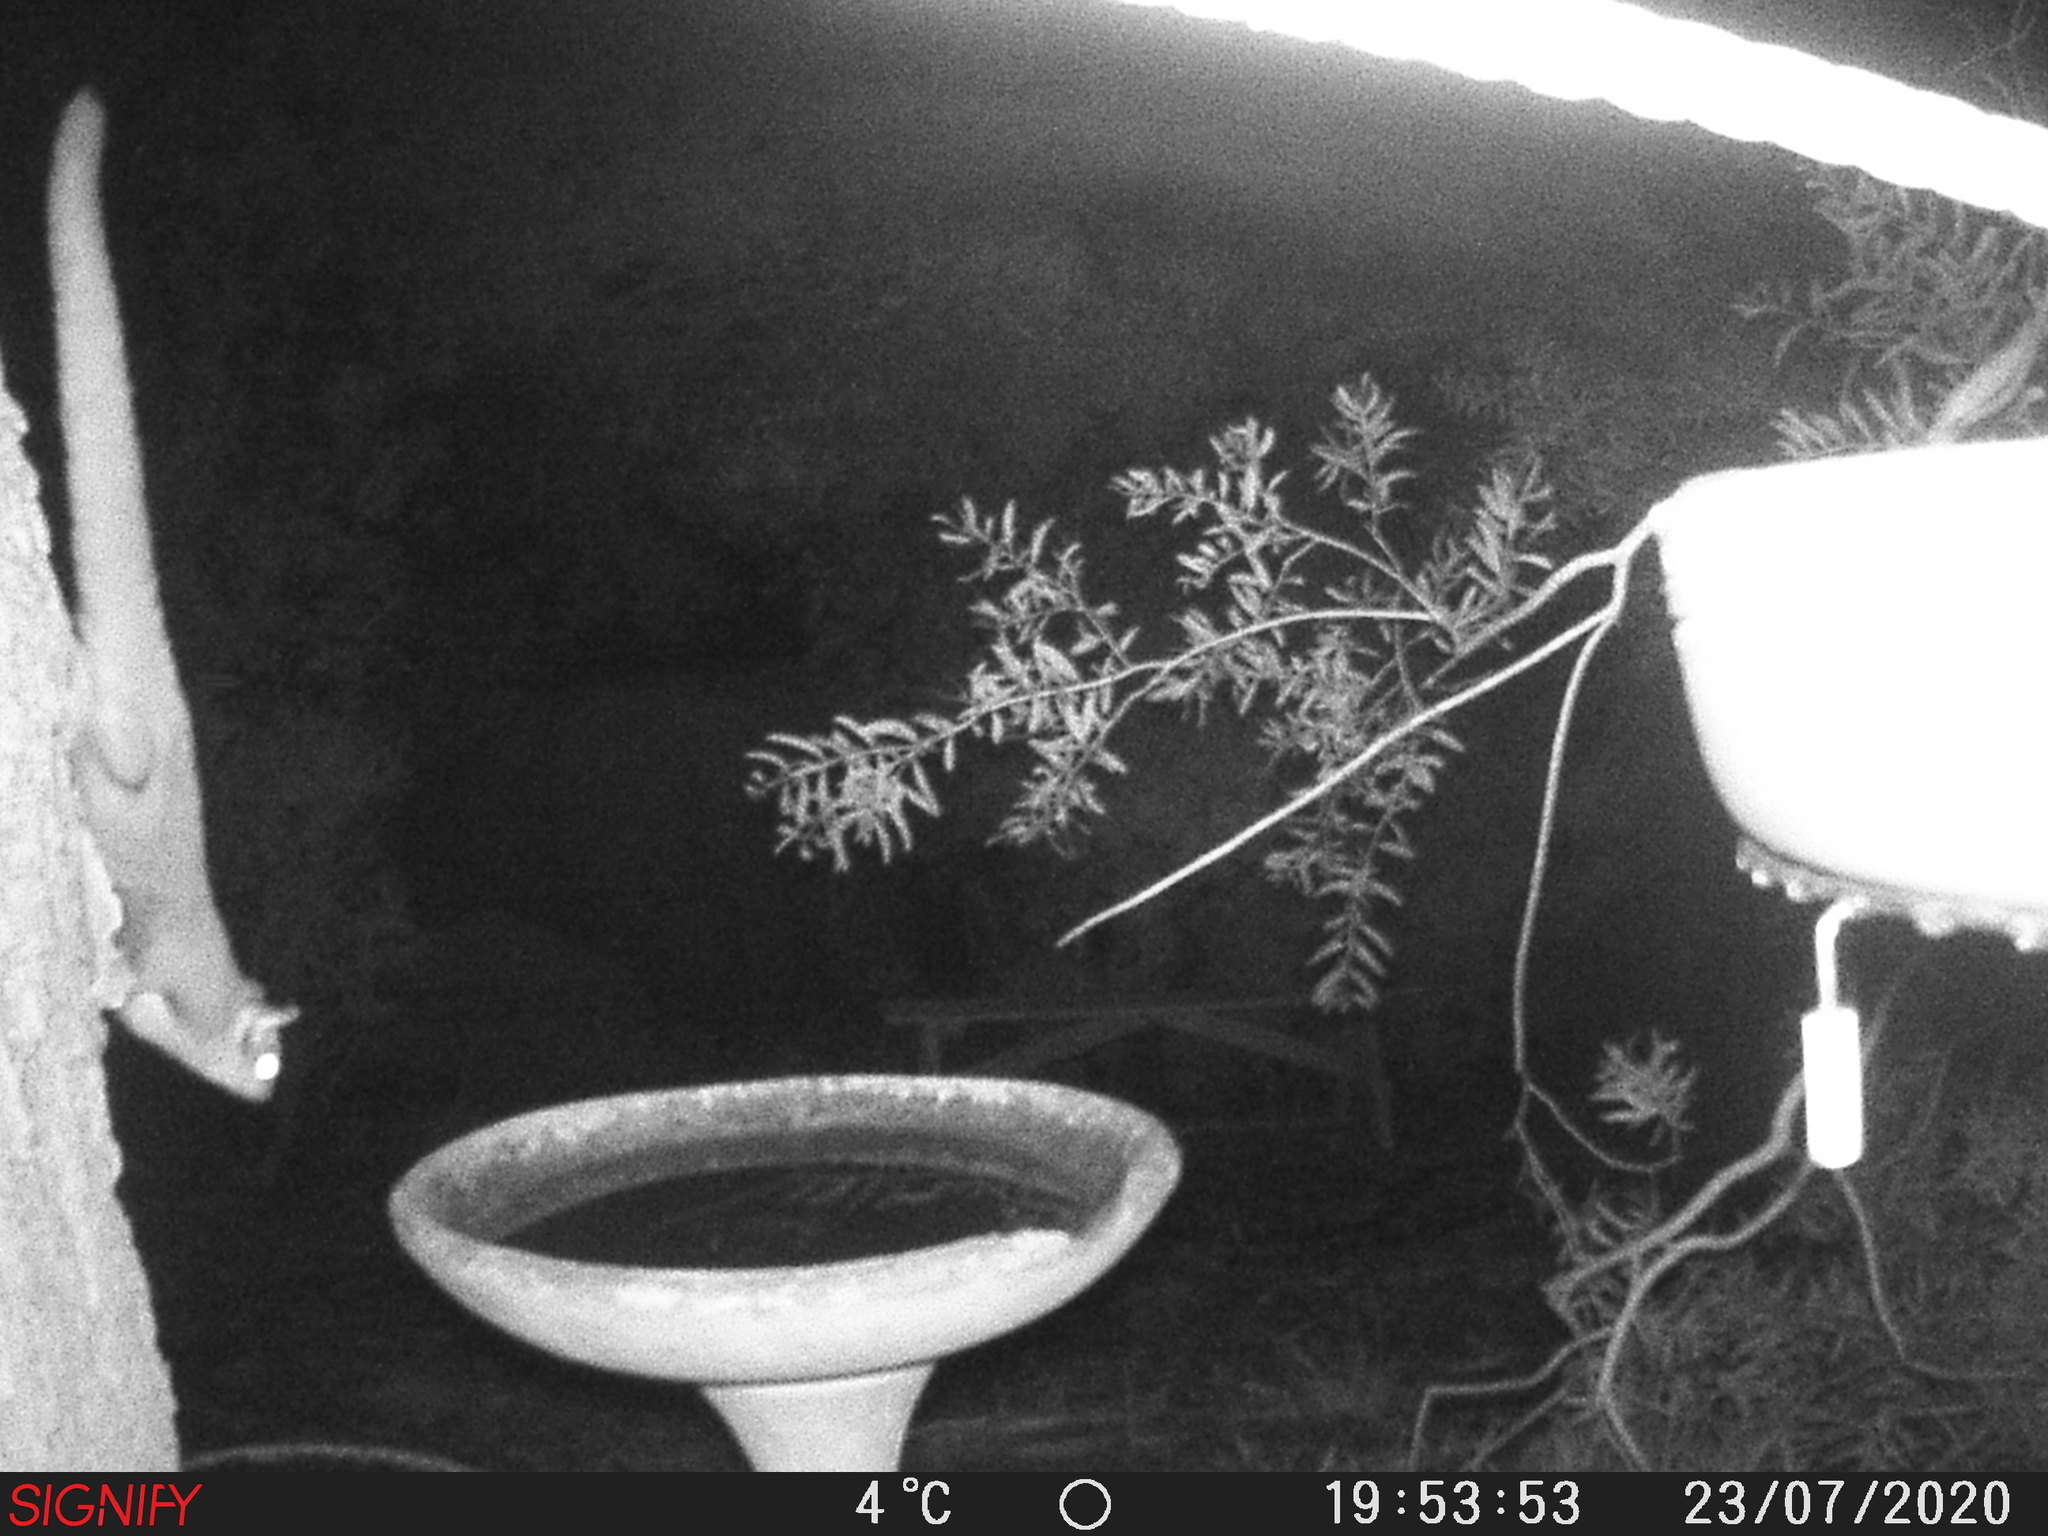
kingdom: Animalia
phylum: Chordata
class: Mammalia
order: Diprotodontia
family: Petauridae
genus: Petaurus
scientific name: Petaurus breviceps
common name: Sugar glider
